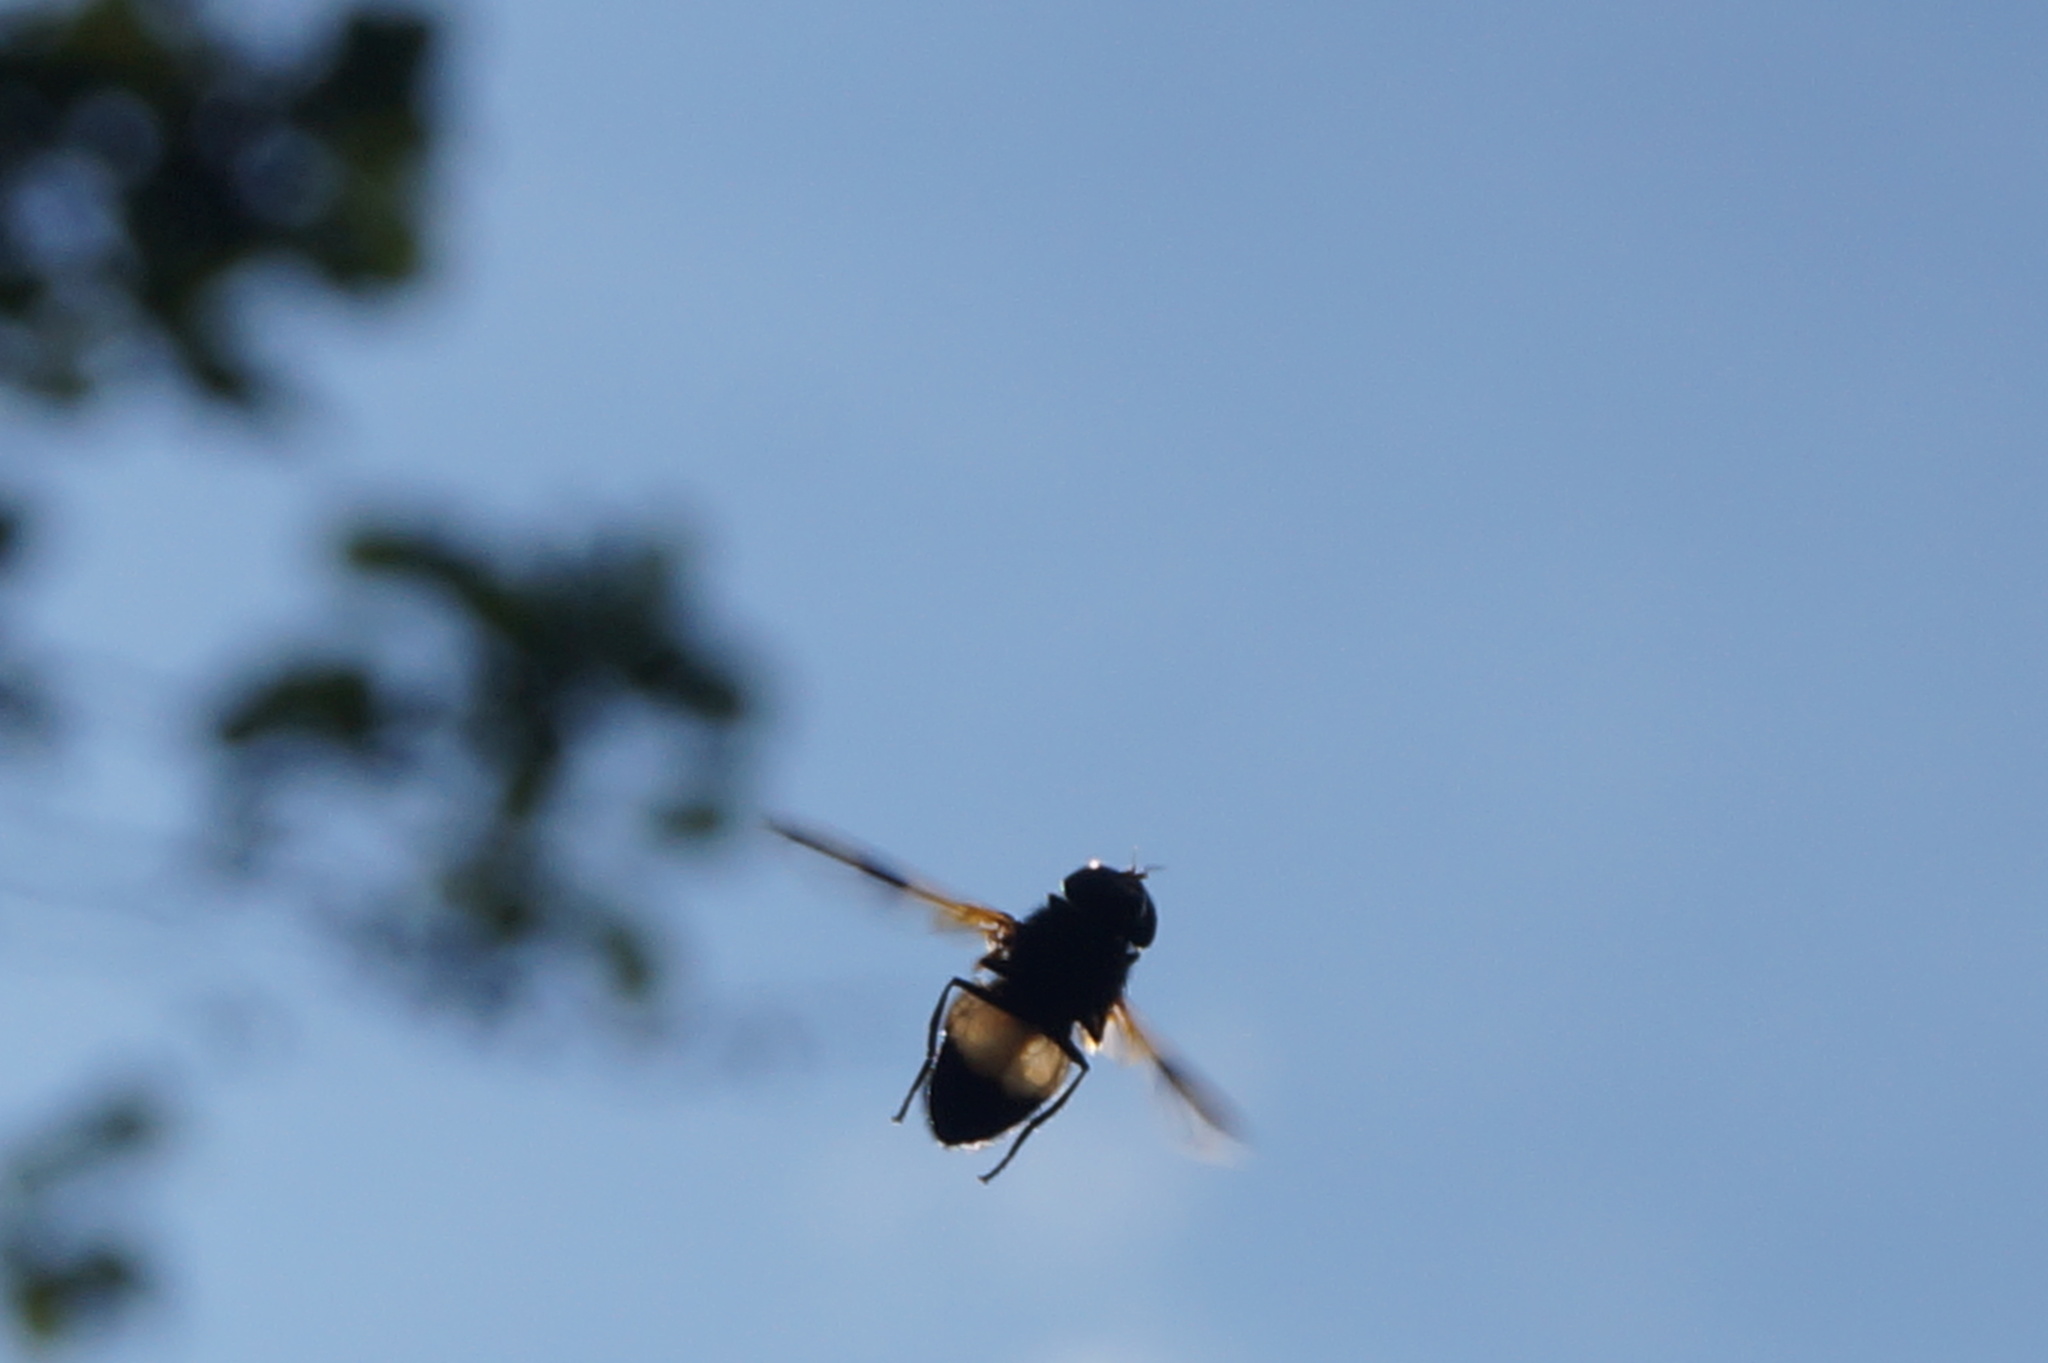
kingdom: Animalia
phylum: Arthropoda
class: Insecta
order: Diptera
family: Syrphidae
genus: Volucella
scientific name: Volucella pellucens
